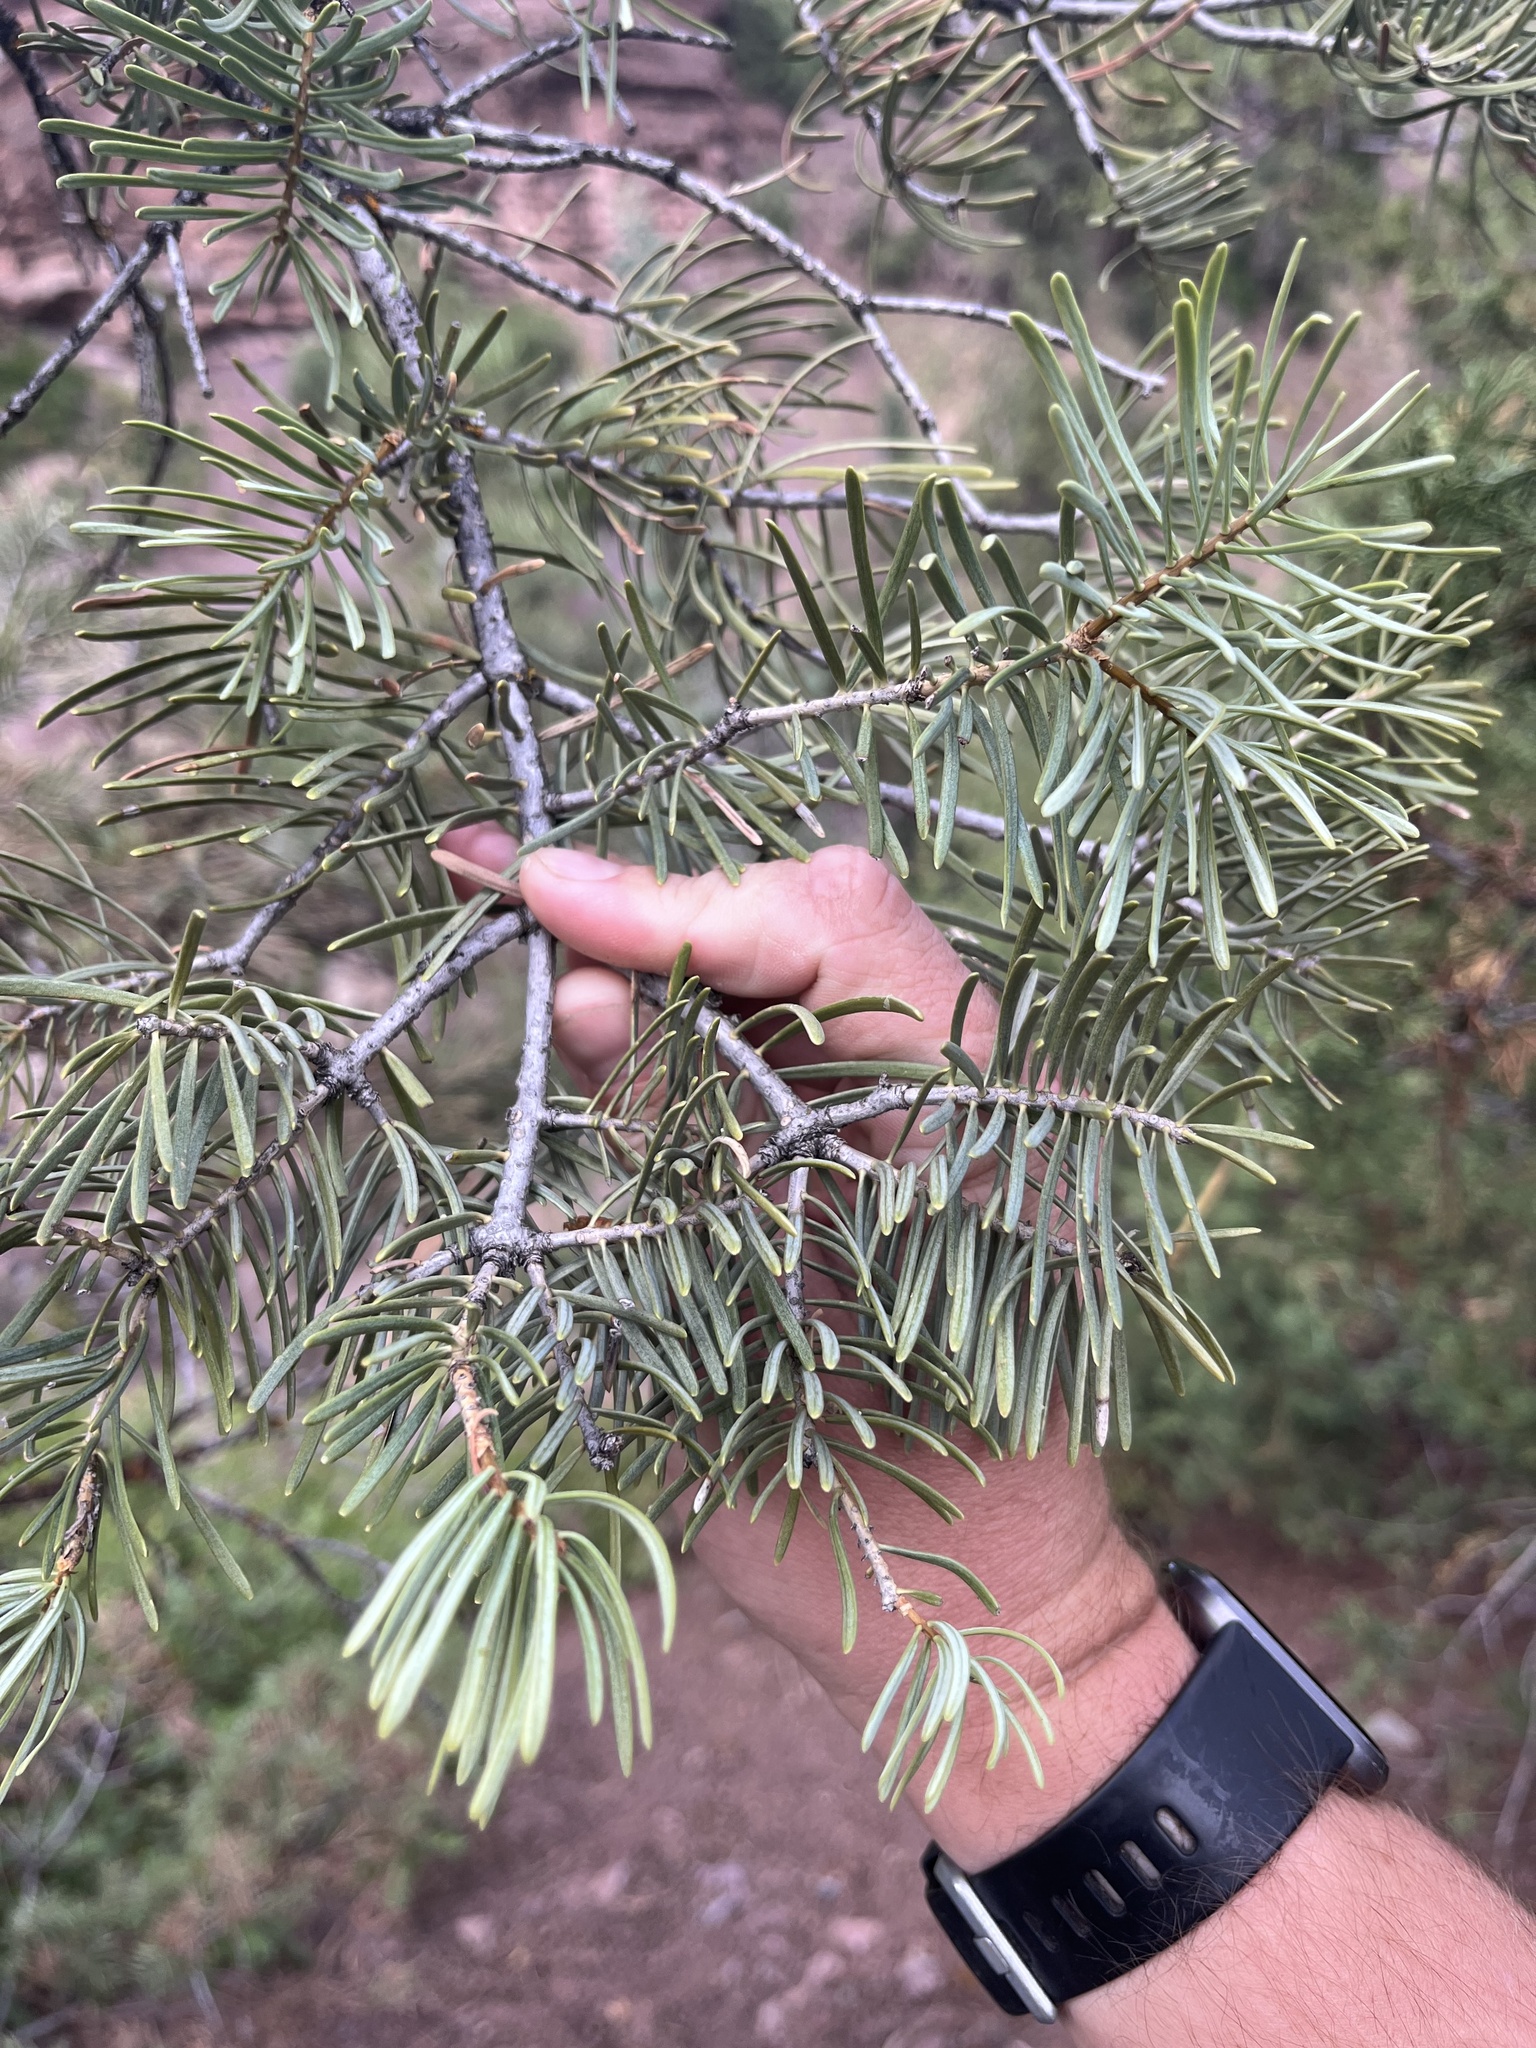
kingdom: Plantae
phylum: Tracheophyta
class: Pinopsida
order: Pinales
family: Pinaceae
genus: Abies
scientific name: Abies concolor
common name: Colorado fir
